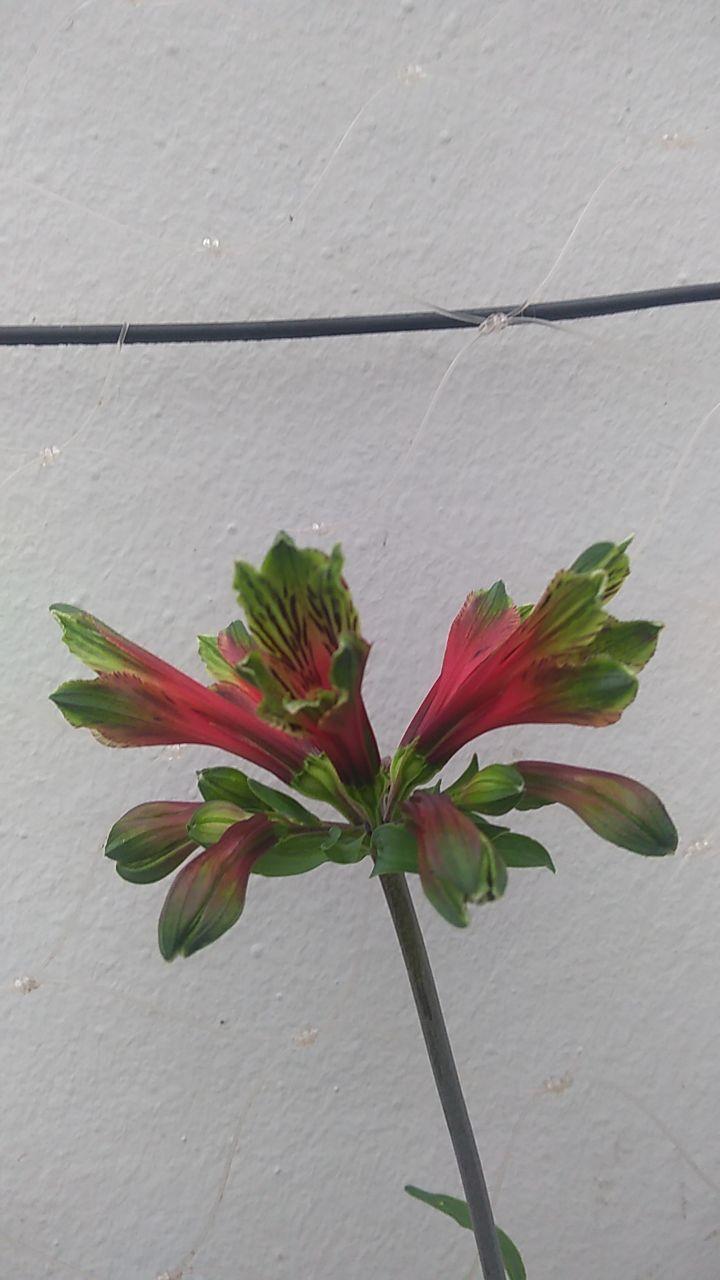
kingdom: Plantae
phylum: Tracheophyta
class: Liliopsida
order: Liliales
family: Alstroemeriaceae
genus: Alstroemeria
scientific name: Alstroemeria psittacina
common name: Peruvian-lily
